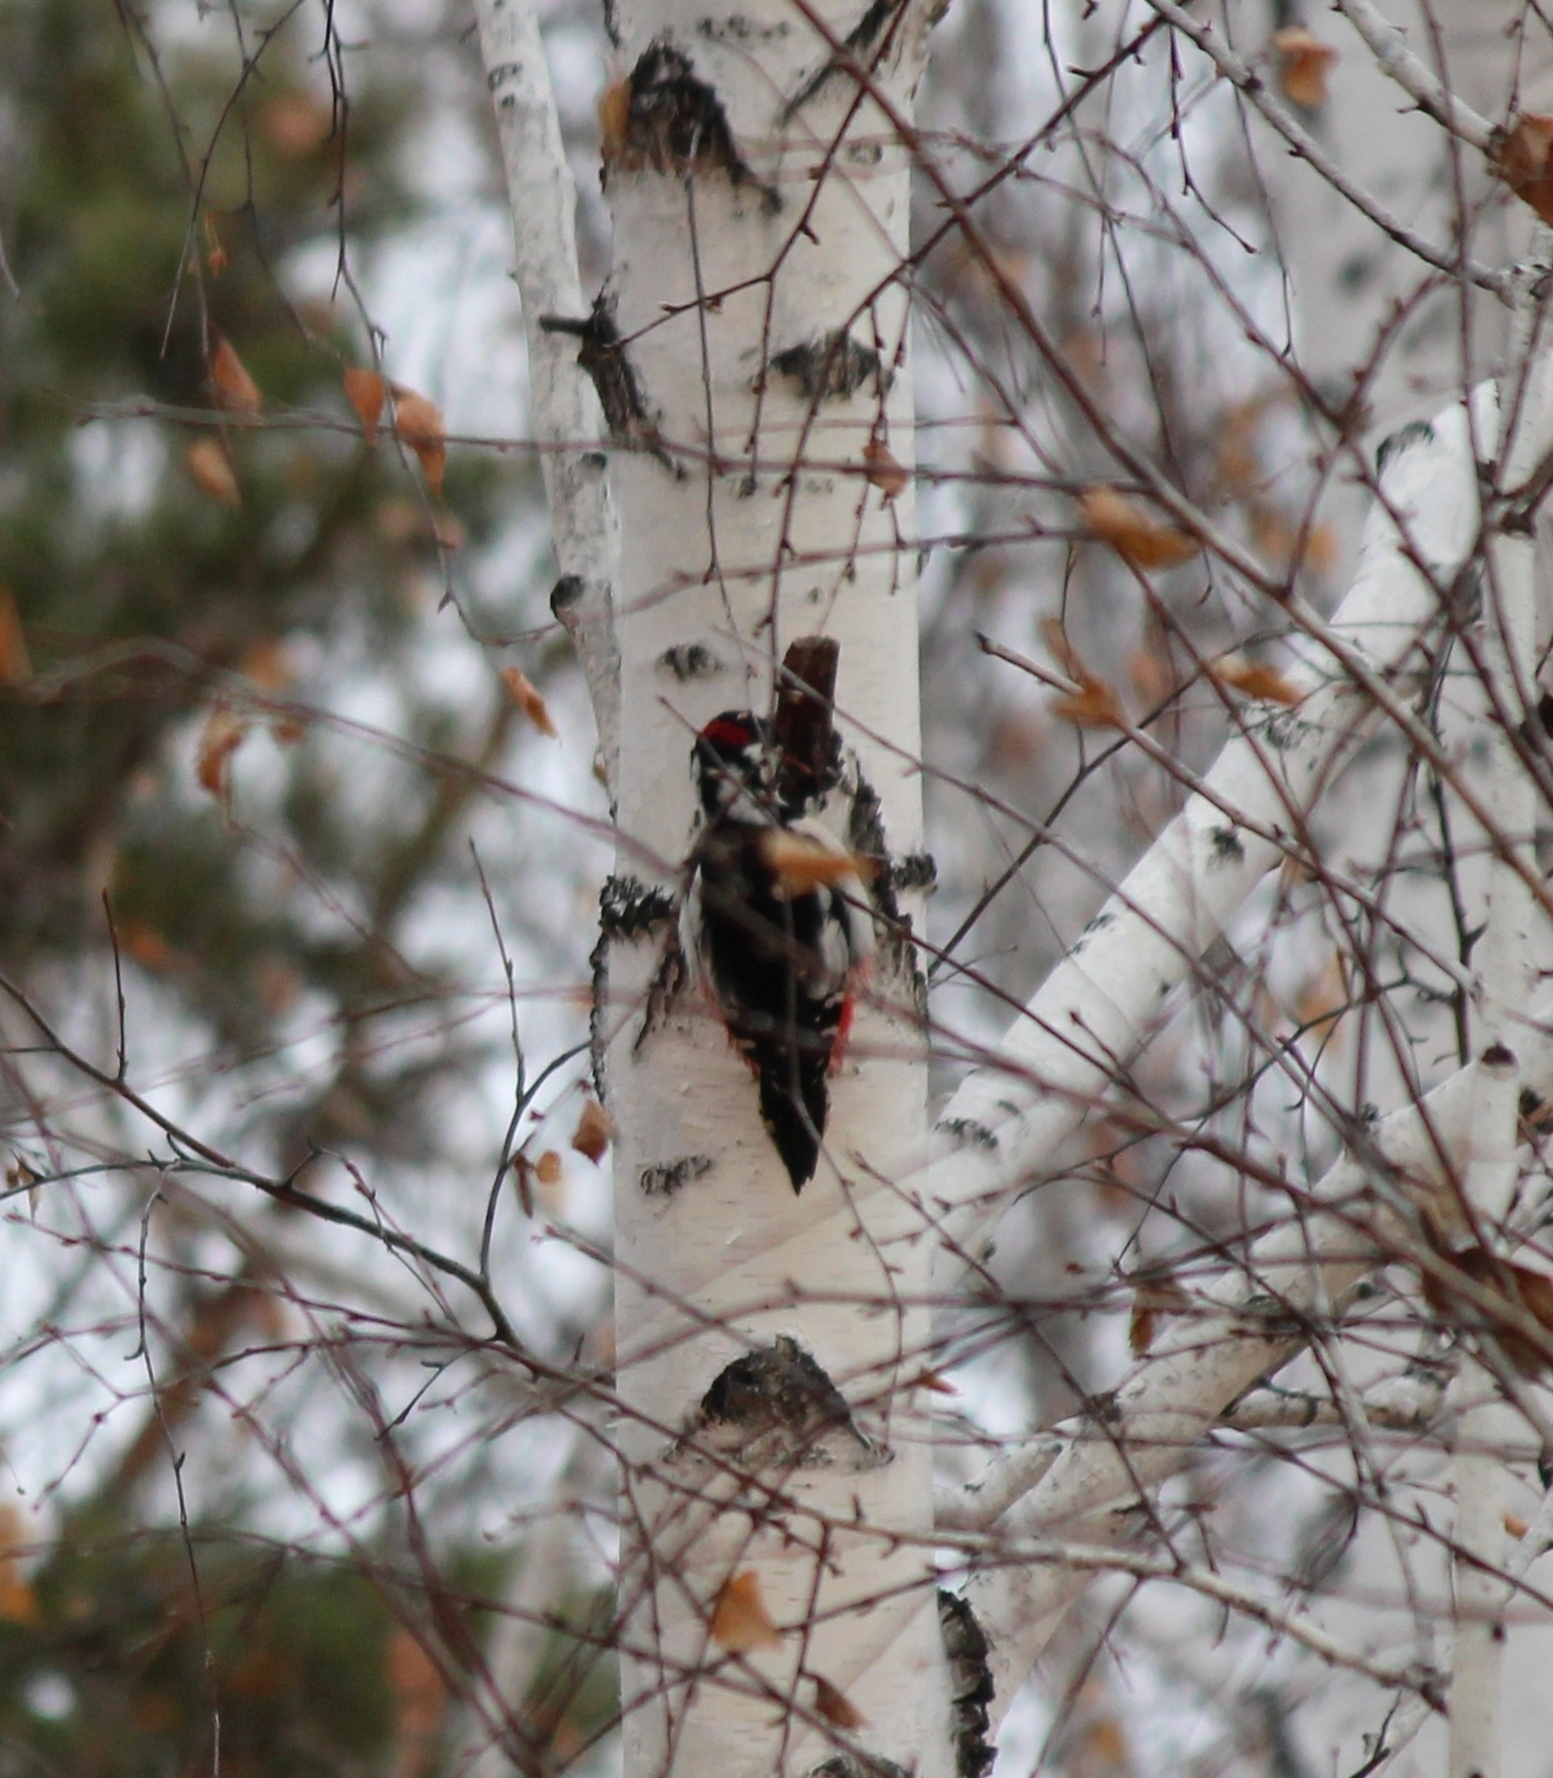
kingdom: Animalia
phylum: Chordata
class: Aves
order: Piciformes
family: Picidae
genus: Dendrocopos
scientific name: Dendrocopos major
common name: Great spotted woodpecker
